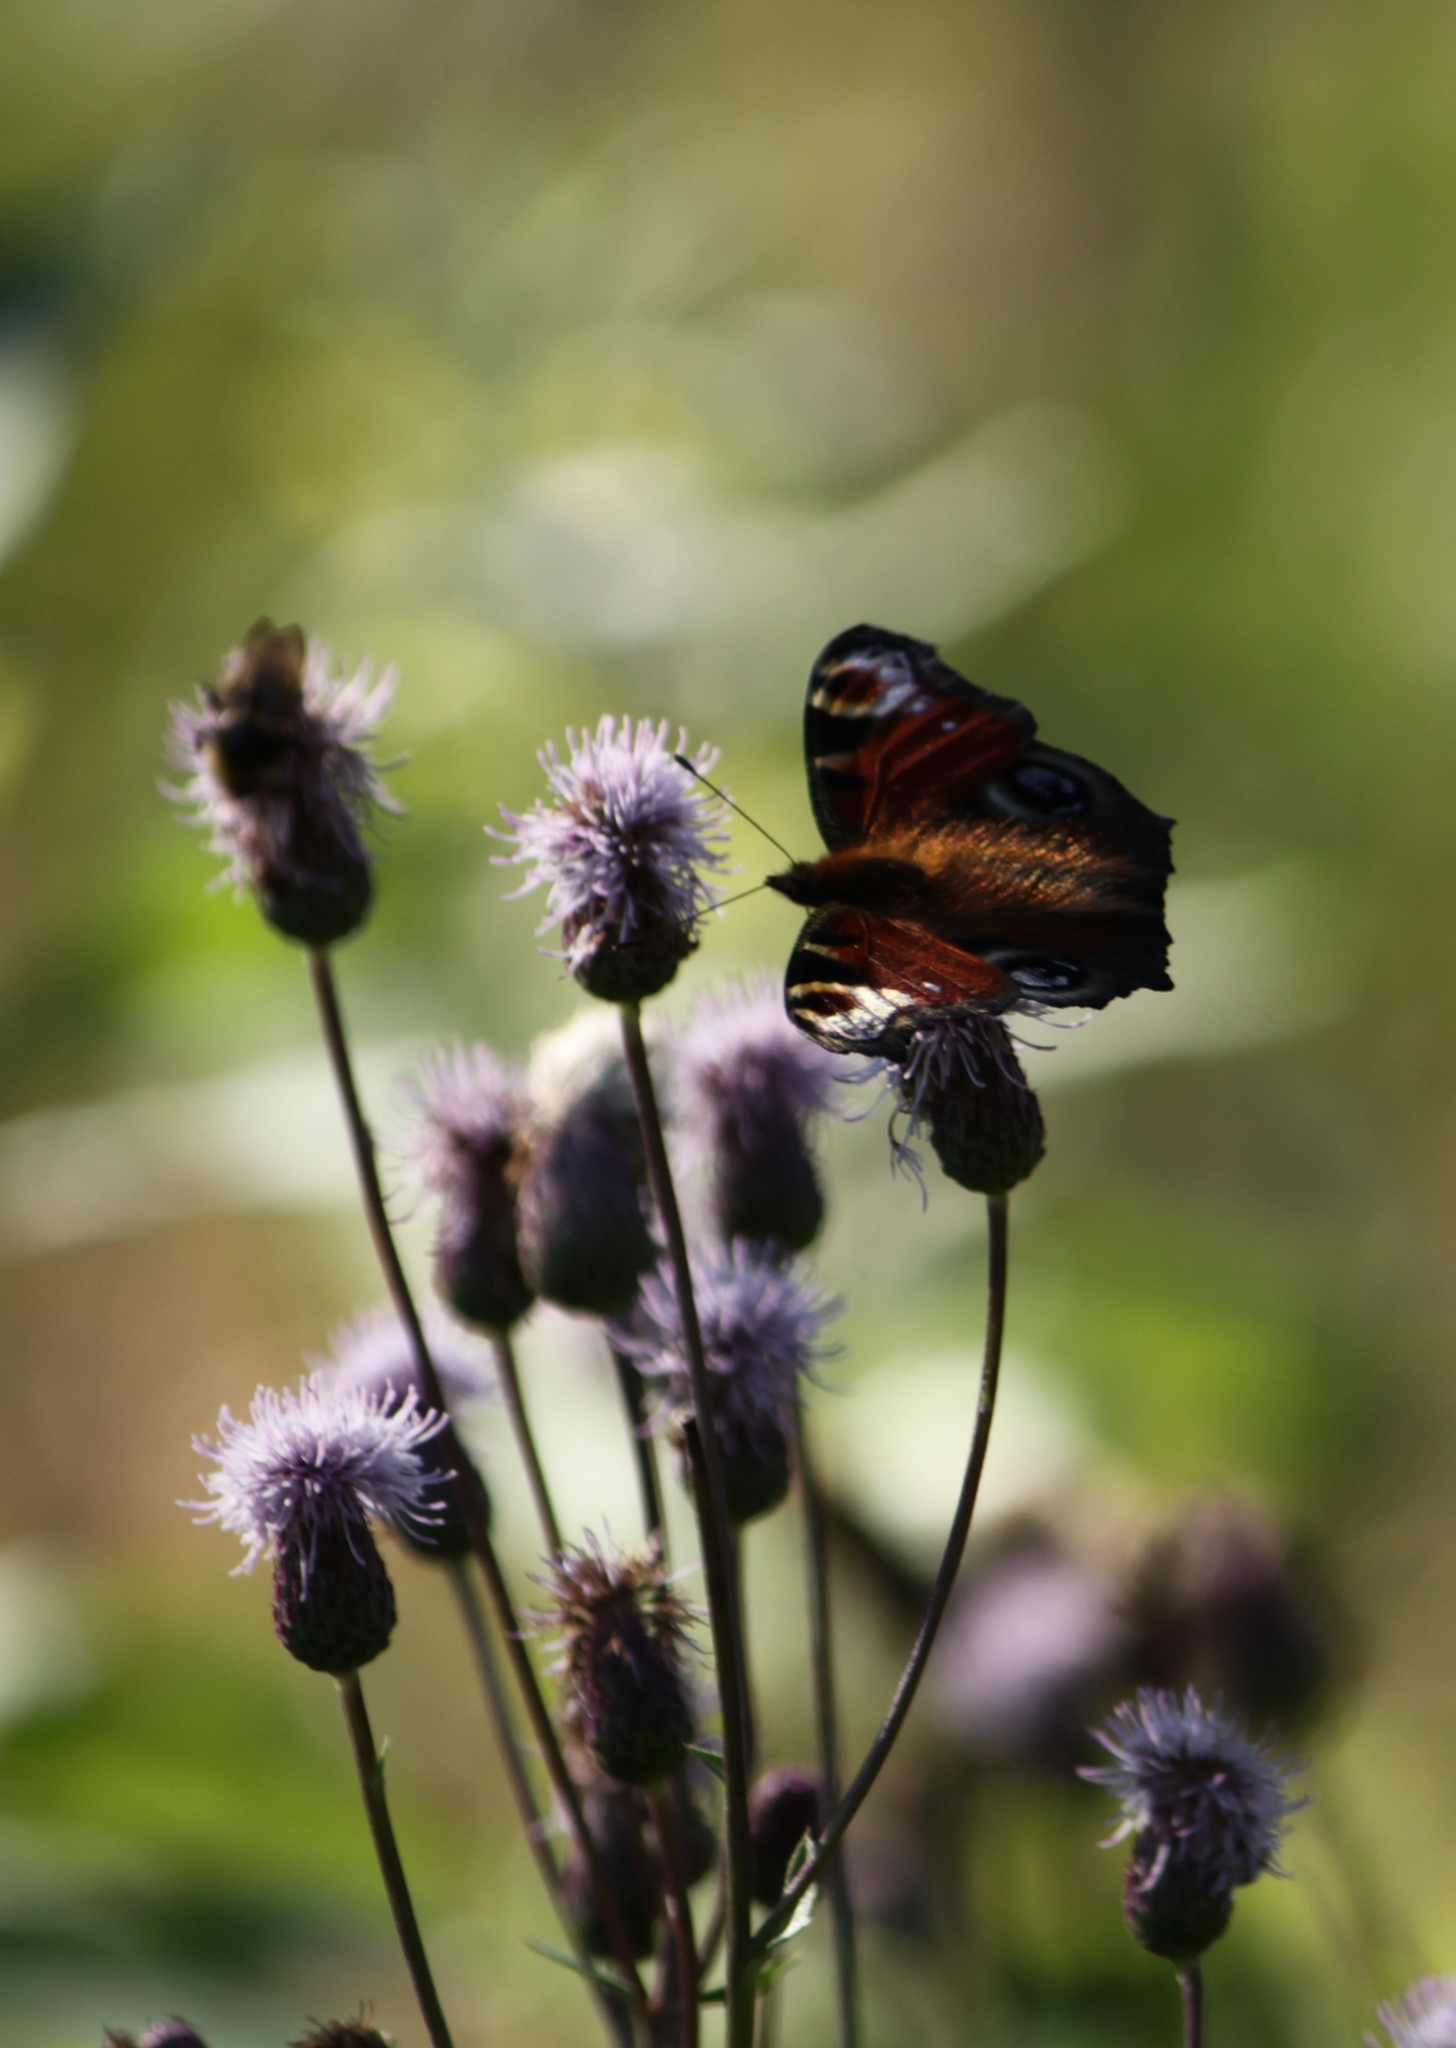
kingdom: Animalia
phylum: Arthropoda
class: Insecta
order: Lepidoptera
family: Nymphalidae
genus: Aglais
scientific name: Aglais io
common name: Peacock
